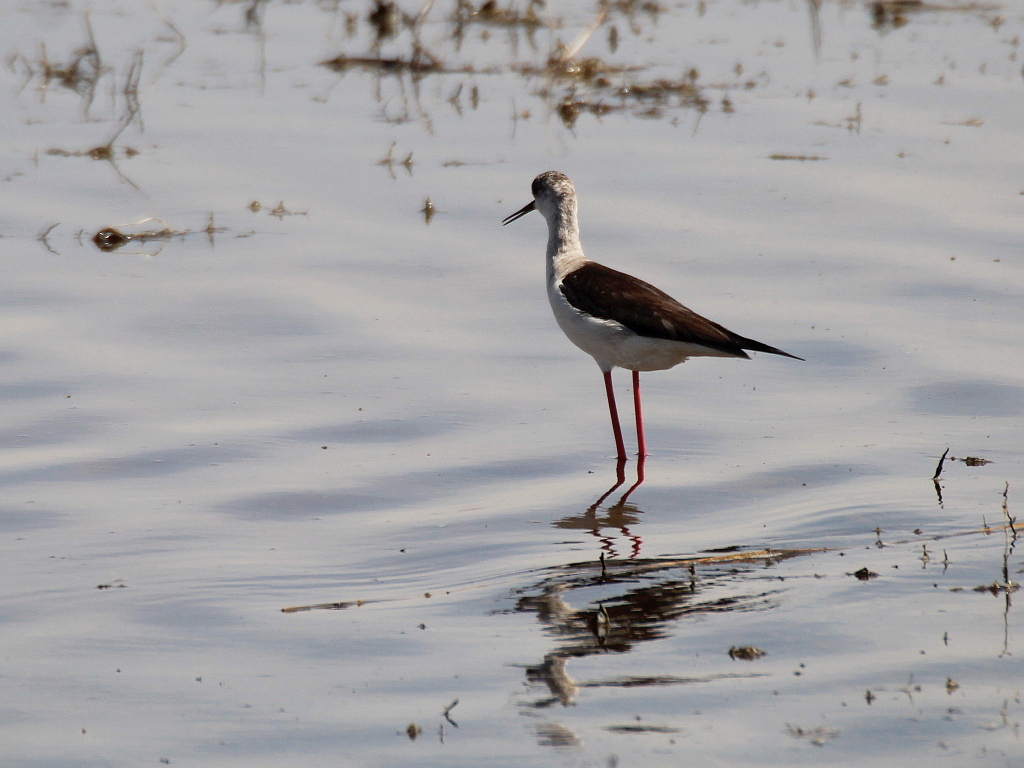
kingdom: Animalia
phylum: Chordata
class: Aves
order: Charadriiformes
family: Recurvirostridae
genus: Himantopus
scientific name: Himantopus himantopus
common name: Black-winged stilt
